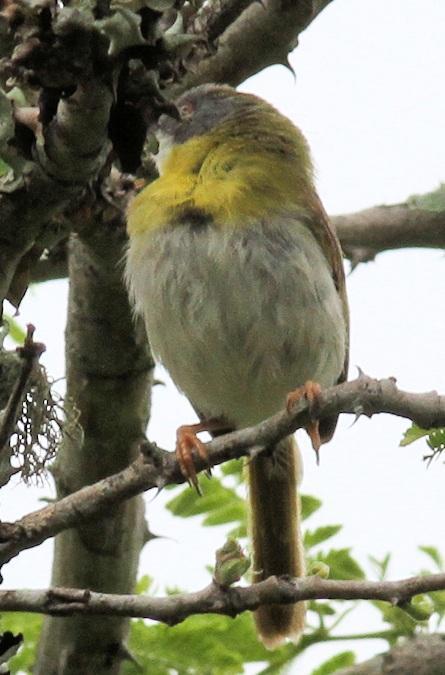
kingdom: Animalia
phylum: Chordata
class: Aves
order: Passeriformes
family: Cisticolidae
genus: Apalis
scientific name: Apalis flavida
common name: Yellow-breasted apalis
